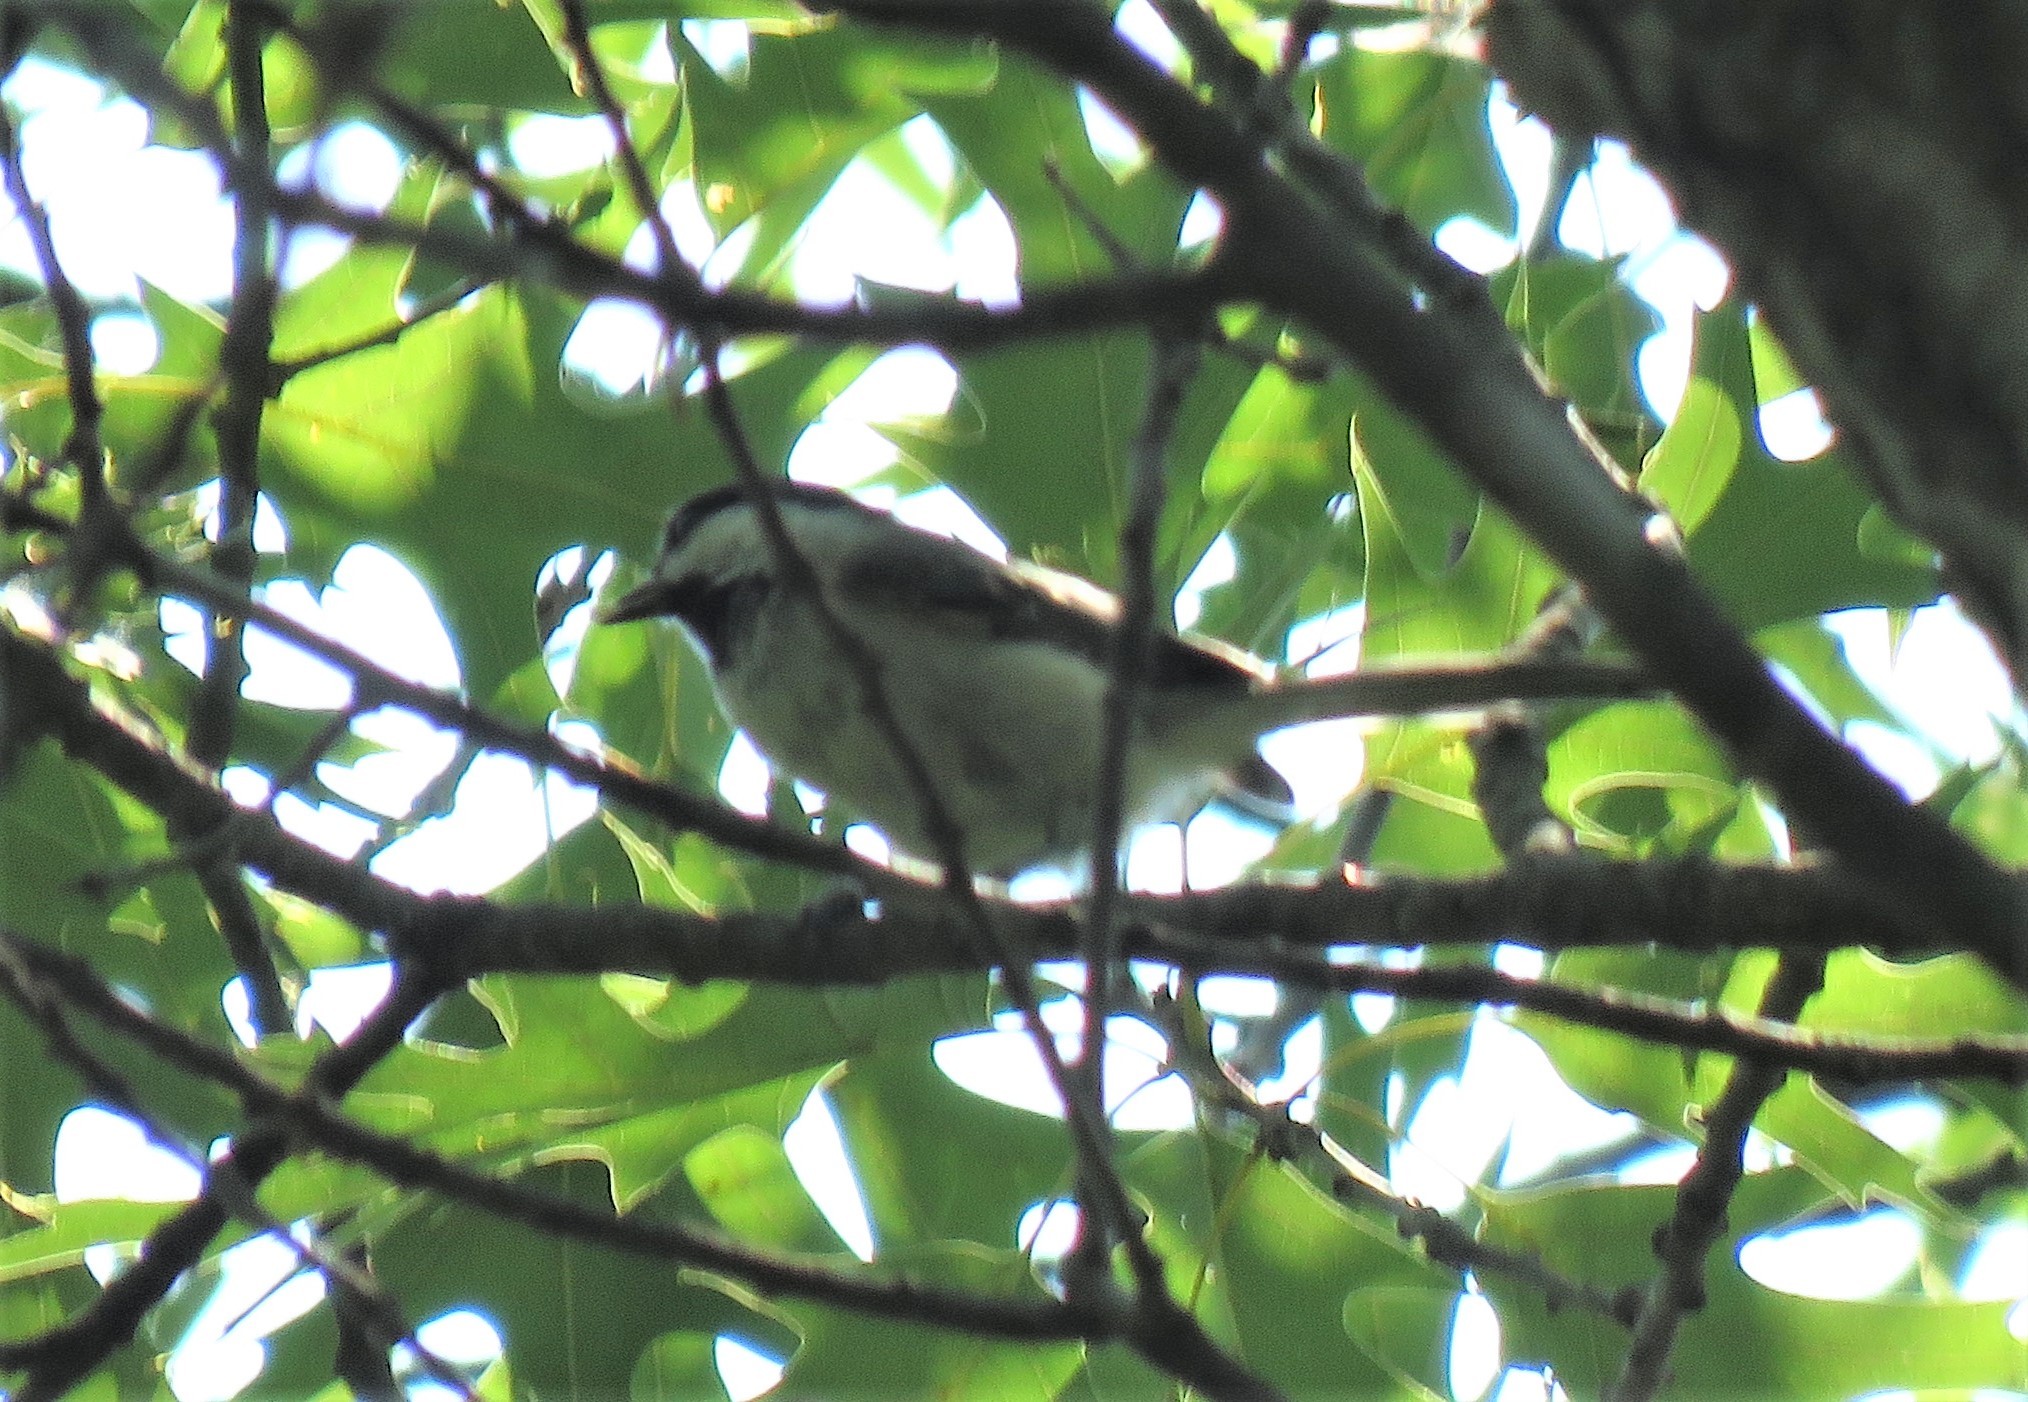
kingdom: Animalia
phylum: Chordata
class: Aves
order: Passeriformes
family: Paridae
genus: Poecile
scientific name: Poecile atricapillus
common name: Black-capped chickadee
